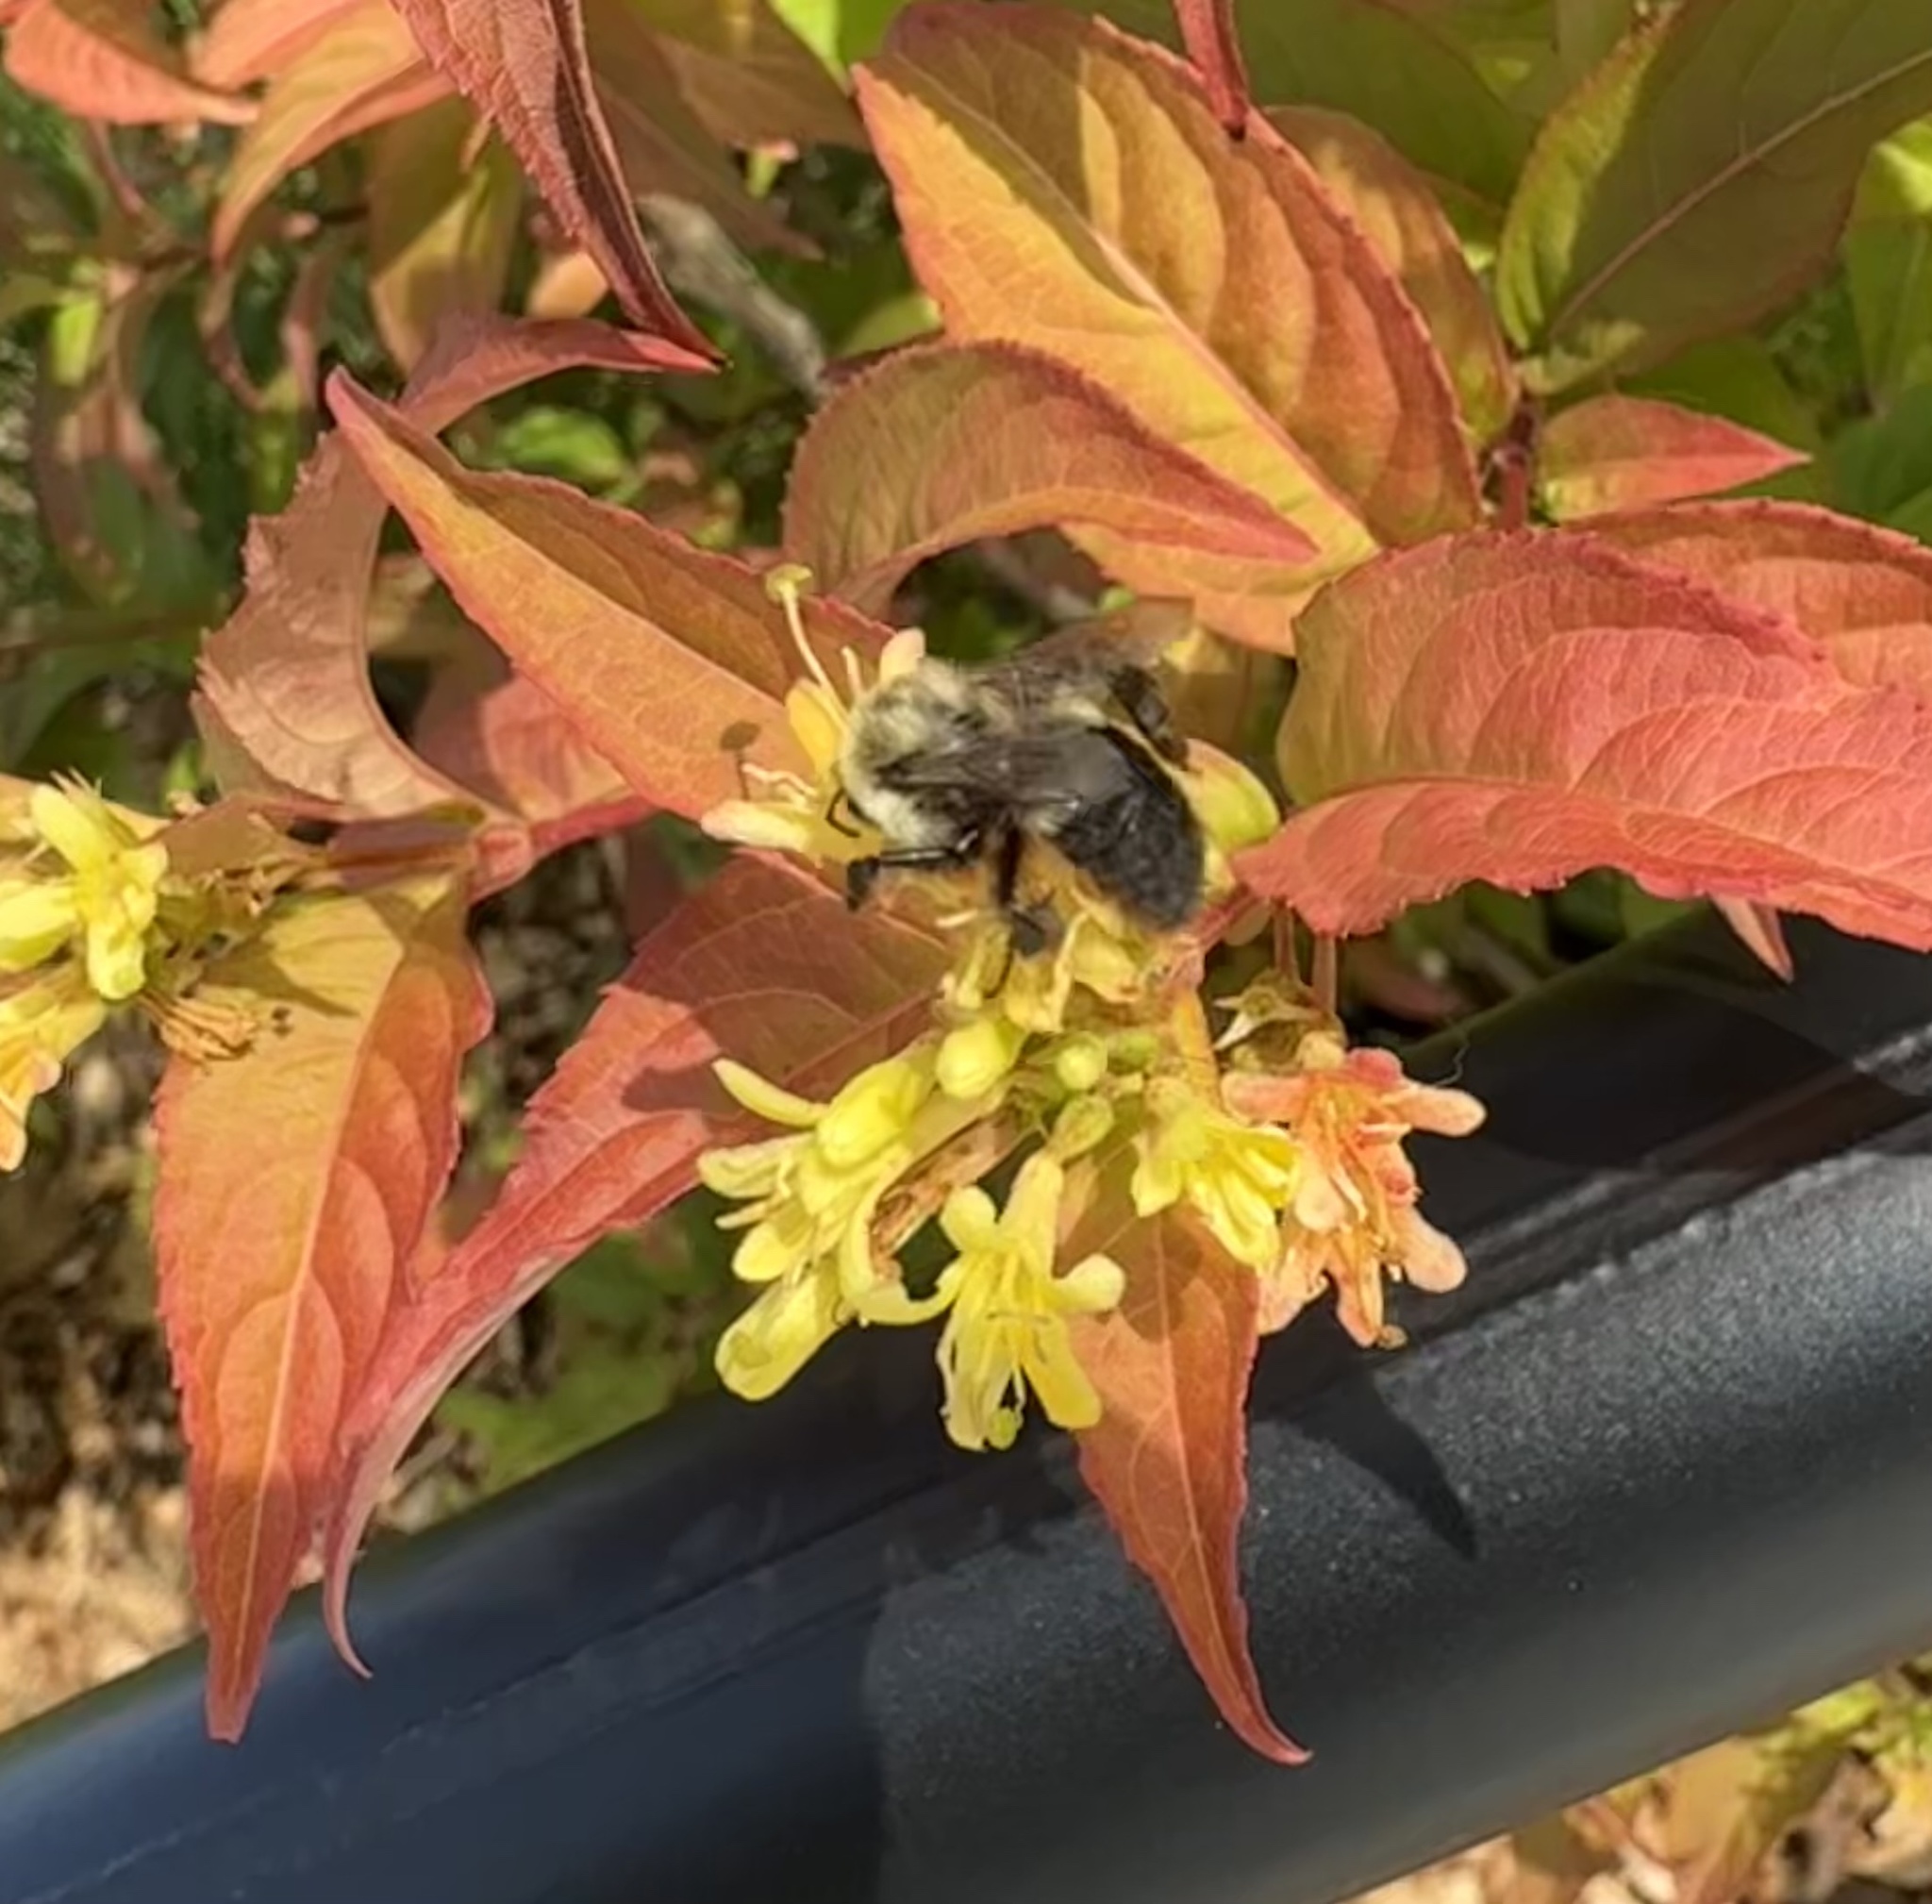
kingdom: Animalia
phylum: Arthropoda
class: Insecta
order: Hymenoptera
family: Apidae
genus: Bombus
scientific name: Bombus impatiens
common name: Common eastern bumble bee
